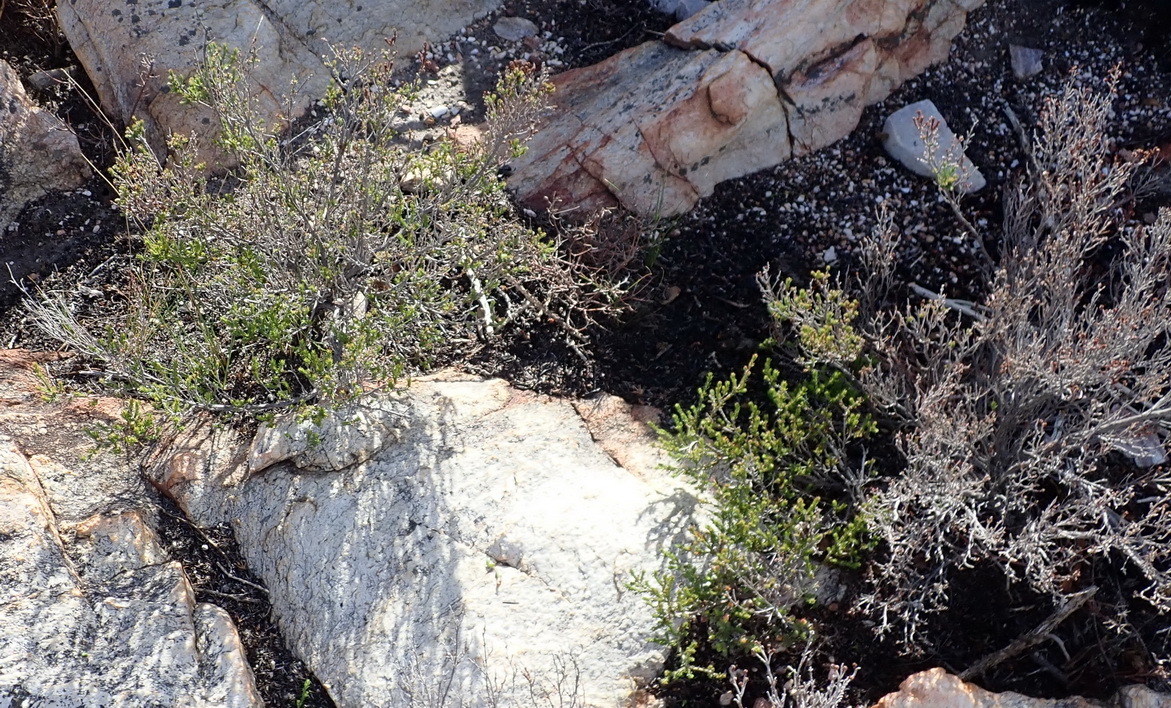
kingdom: Plantae
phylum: Tracheophyta
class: Magnoliopsida
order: Ericales
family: Ericaceae
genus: Erica
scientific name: Erica vlokii
